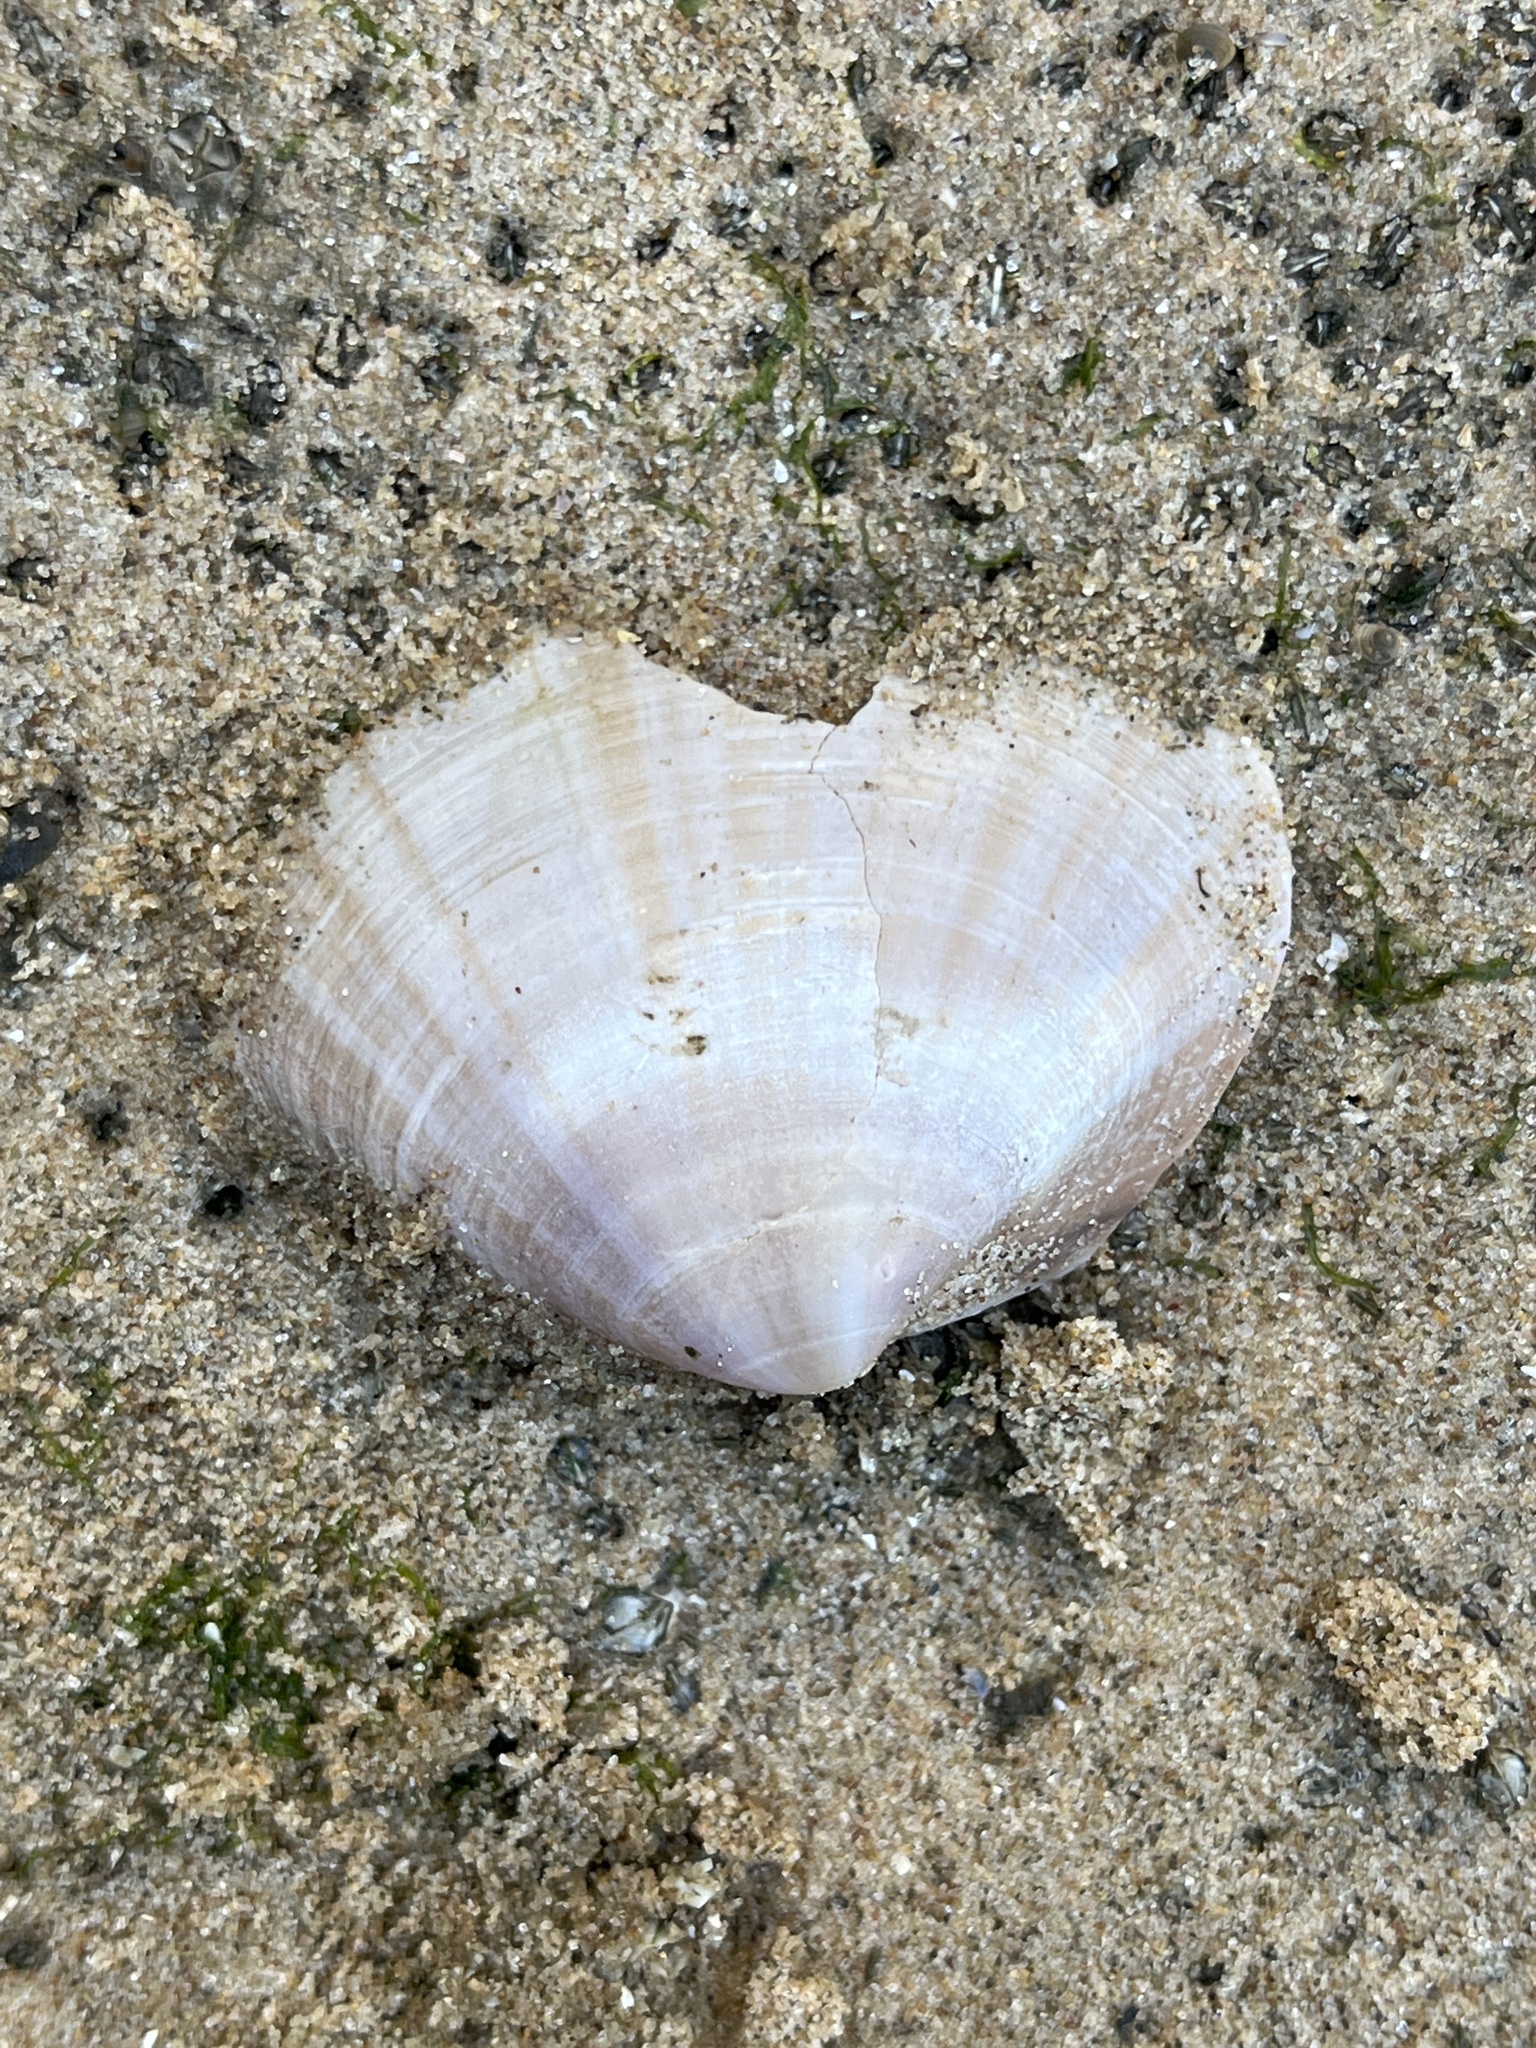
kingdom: Animalia
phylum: Mollusca
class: Bivalvia
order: Venerida
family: Mactridae
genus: Mactra
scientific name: Mactra stultorum
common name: Rayed trough shell
